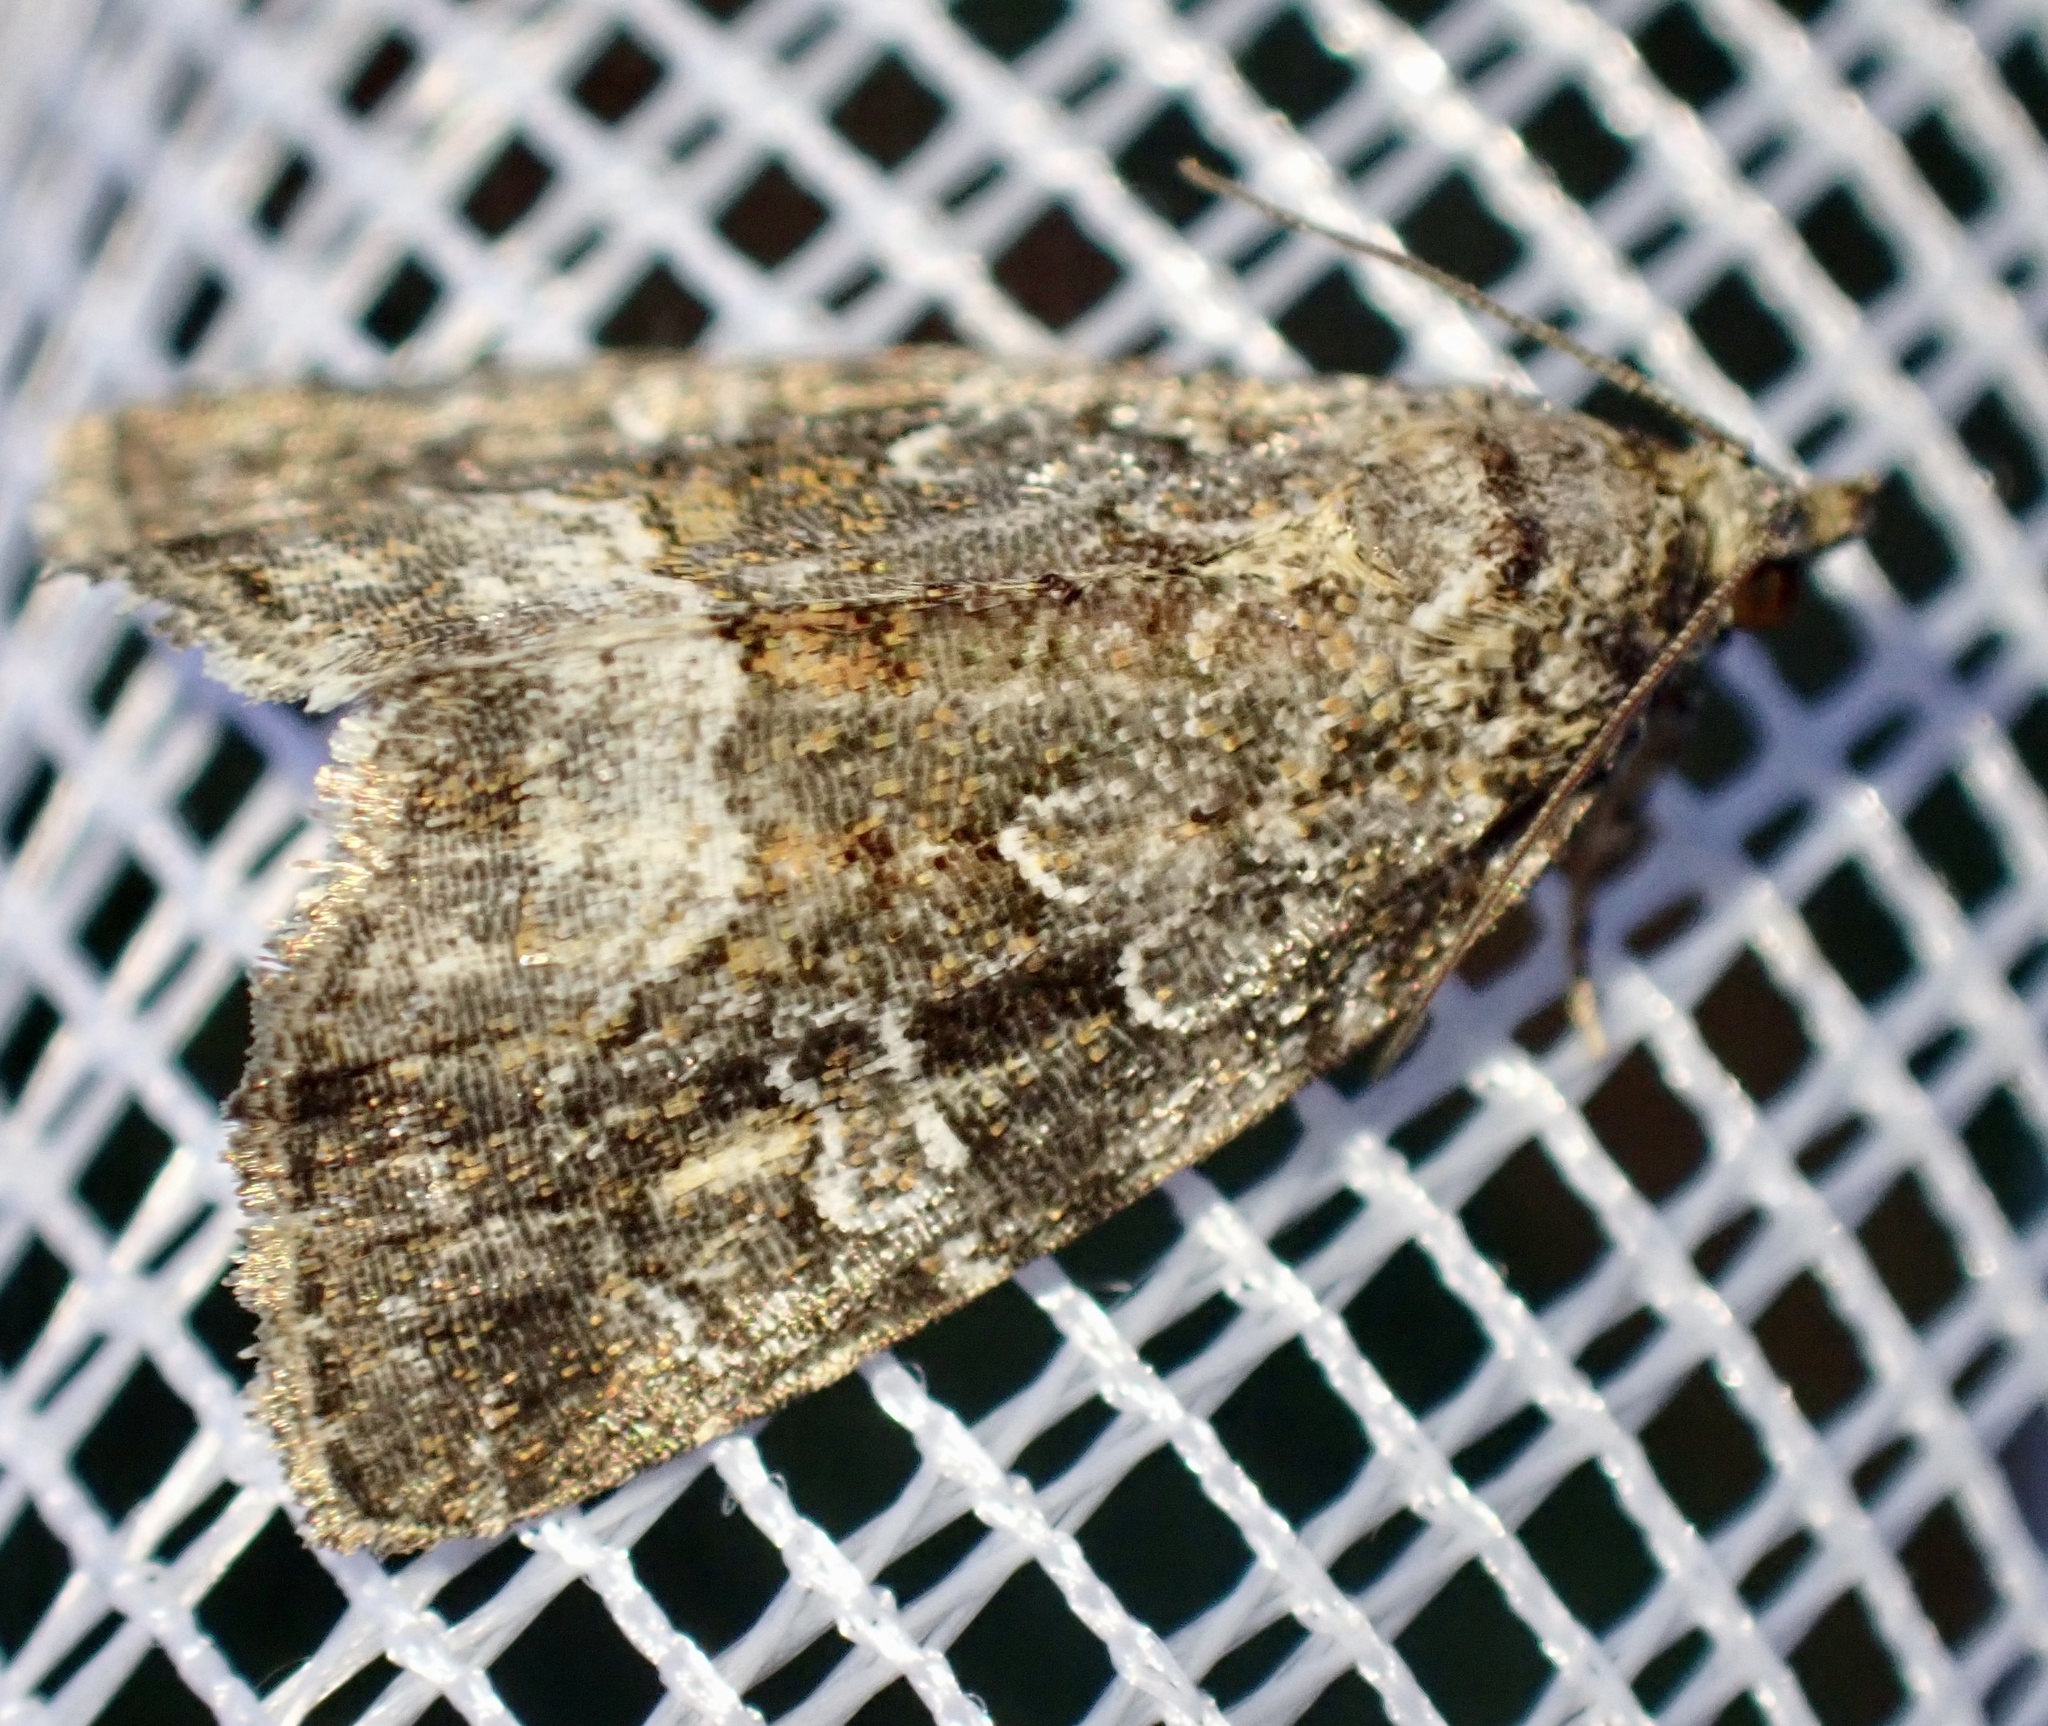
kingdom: Animalia
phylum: Arthropoda
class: Insecta
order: Lepidoptera
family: Noctuidae
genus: Deltote
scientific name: Deltote pygarga
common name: Marbled white spot
